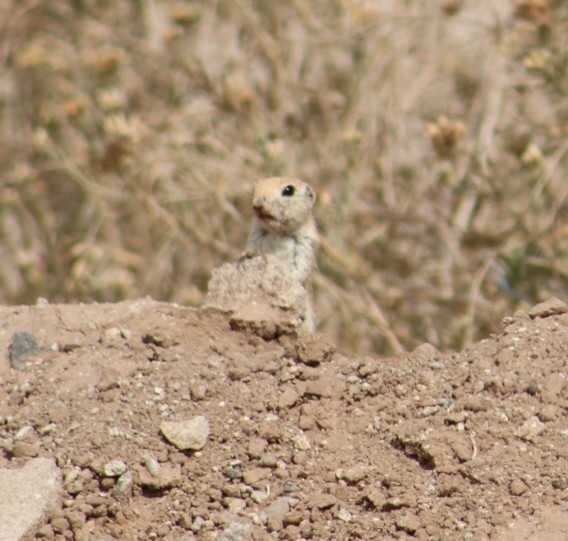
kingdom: Animalia
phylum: Chordata
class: Mammalia
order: Rodentia
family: Sciuridae
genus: Xerospermophilus
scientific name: Xerospermophilus tereticaudus
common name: Round-tailed ground squirrel
